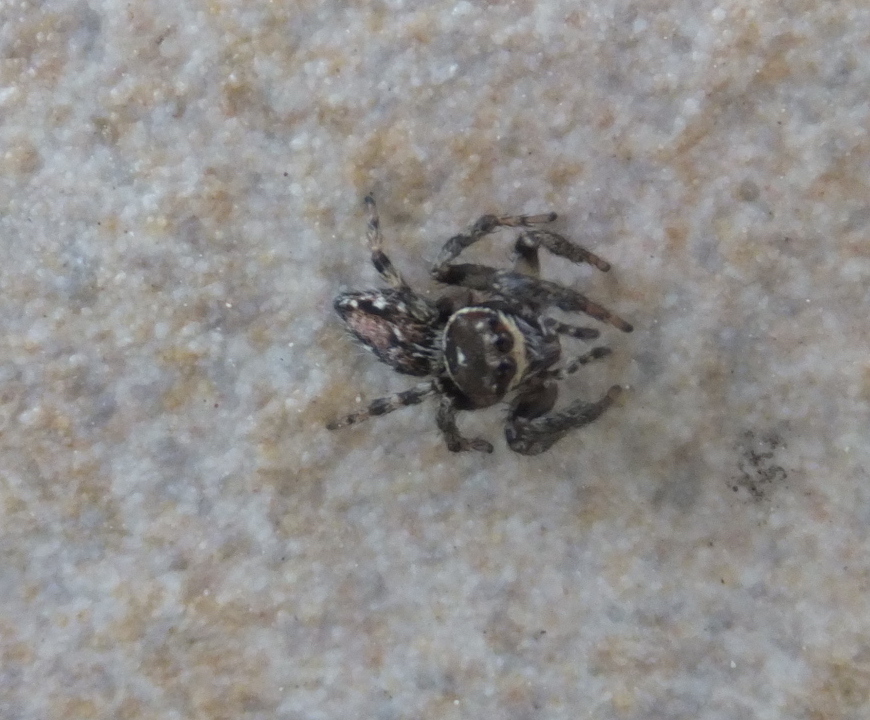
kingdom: Animalia
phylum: Arthropoda
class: Arachnida
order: Araneae
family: Salticidae
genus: Evarcha
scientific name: Evarcha jucunda
